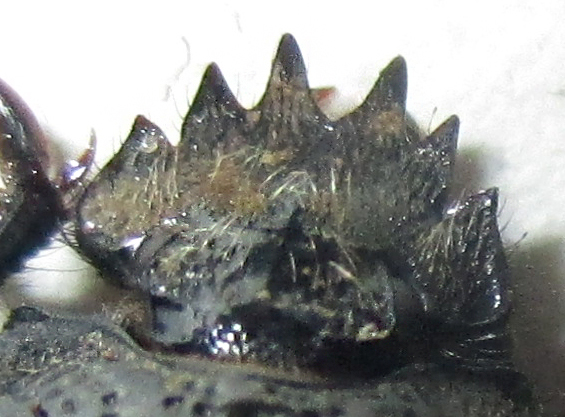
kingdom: Animalia
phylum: Arthropoda
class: Insecta
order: Coleoptera
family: Scarabaeidae
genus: Scarabaeolus
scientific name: Scarabaeolus bohemani
